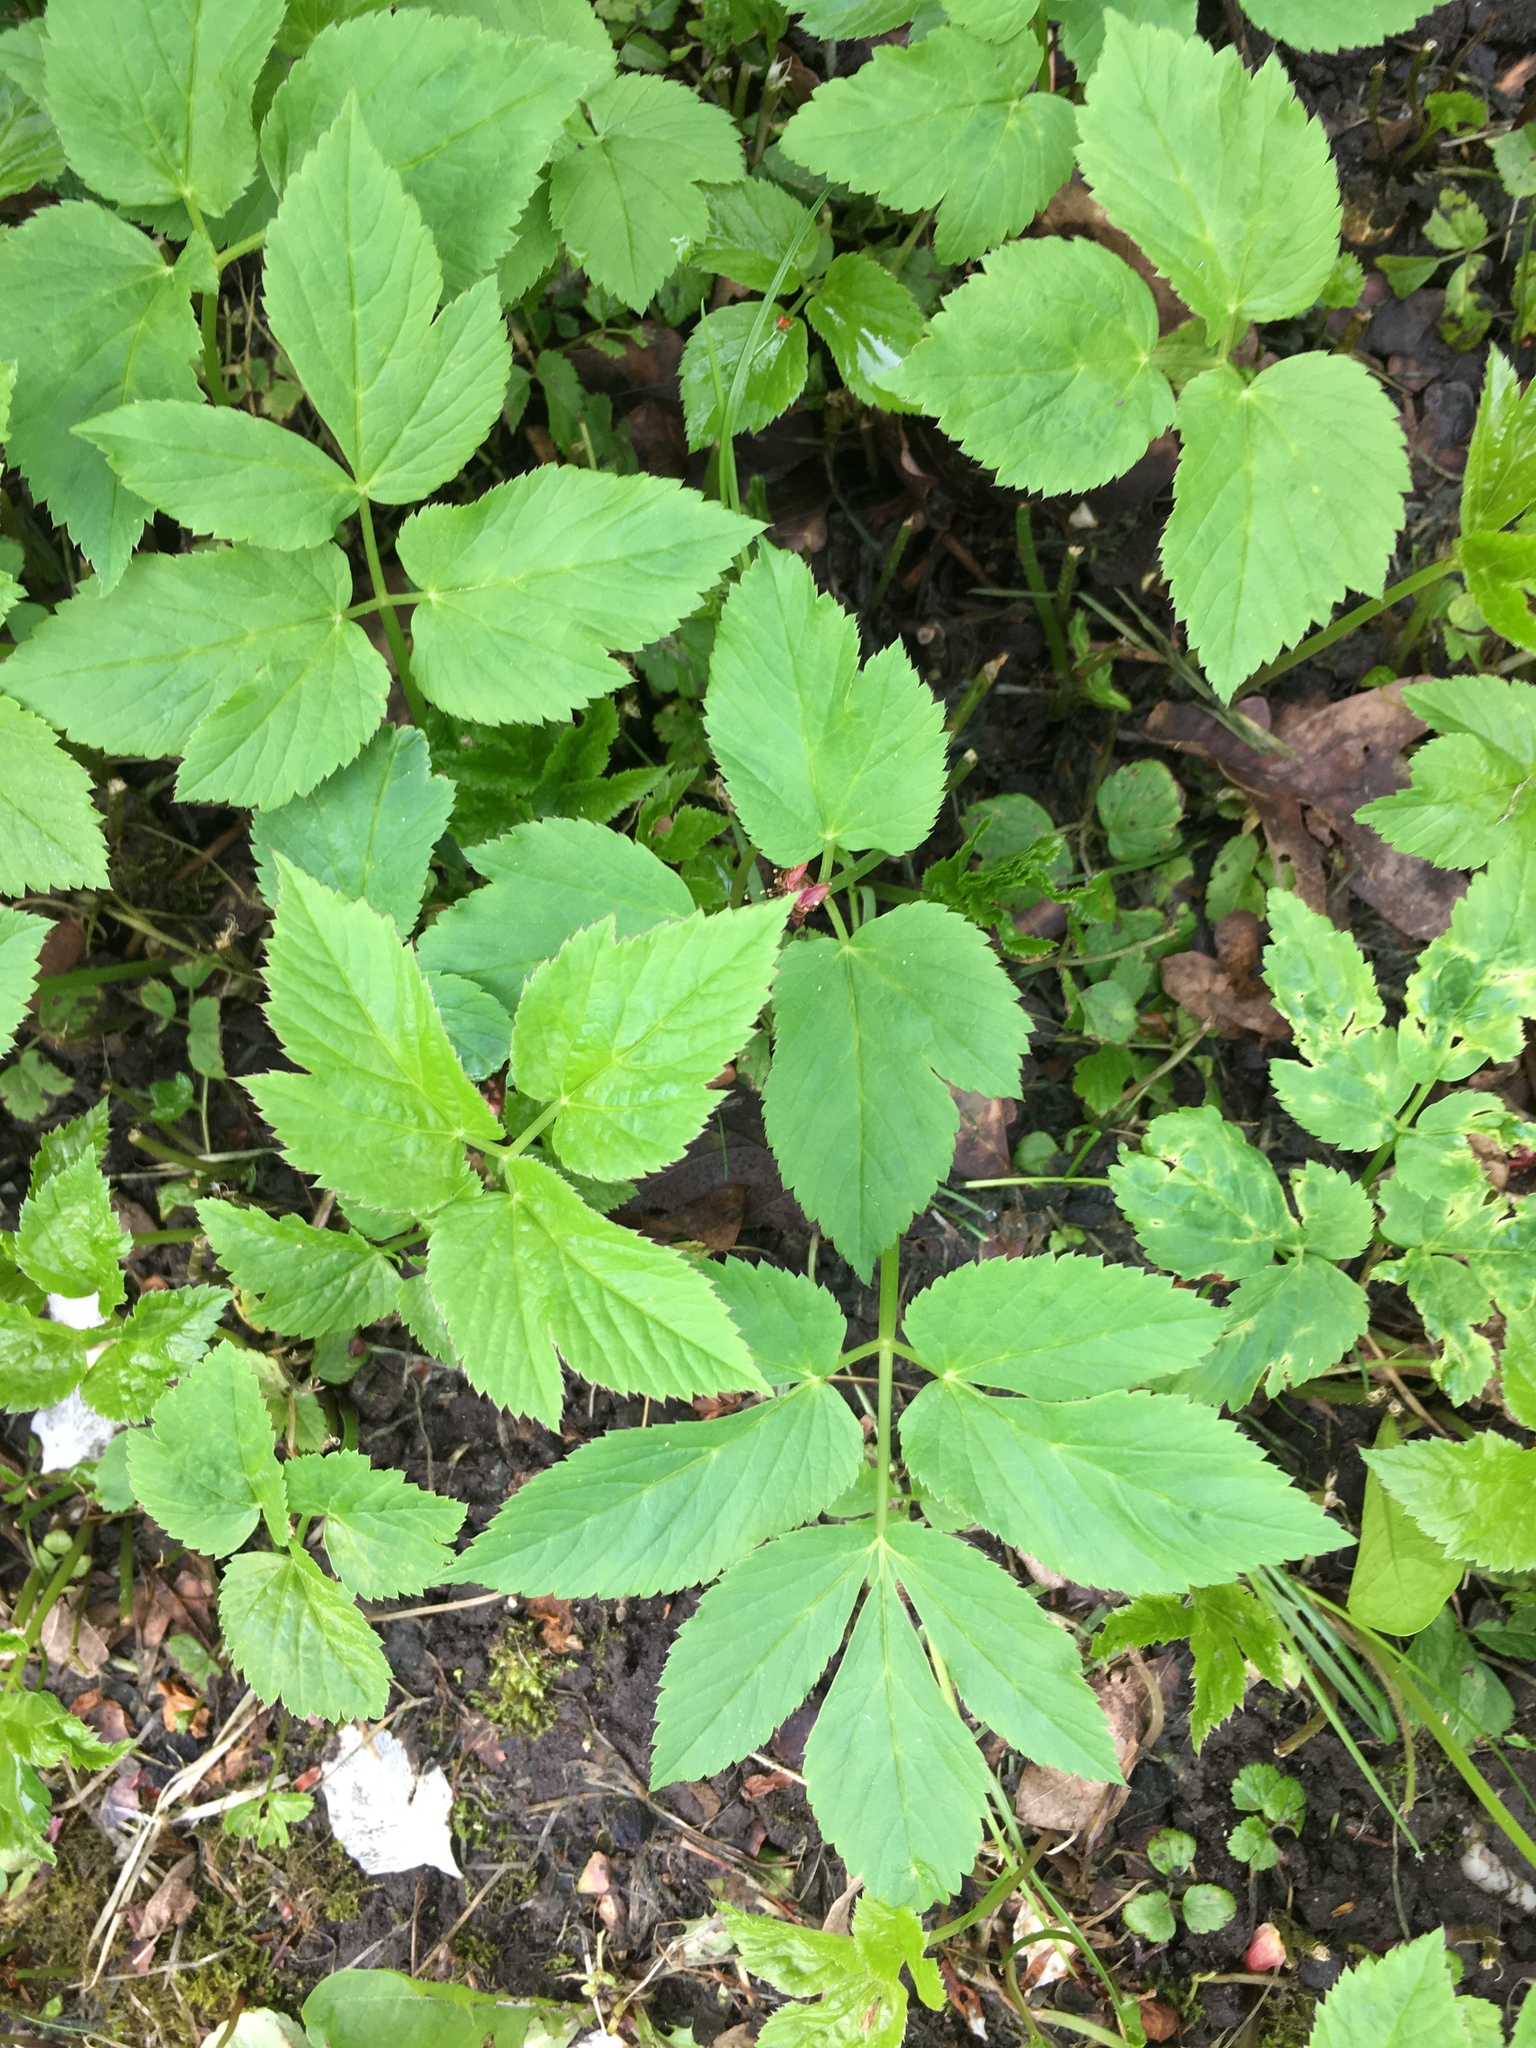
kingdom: Plantae
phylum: Tracheophyta
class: Magnoliopsida
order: Apiales
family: Apiaceae
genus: Aegopodium
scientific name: Aegopodium podagraria
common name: Ground-elder
